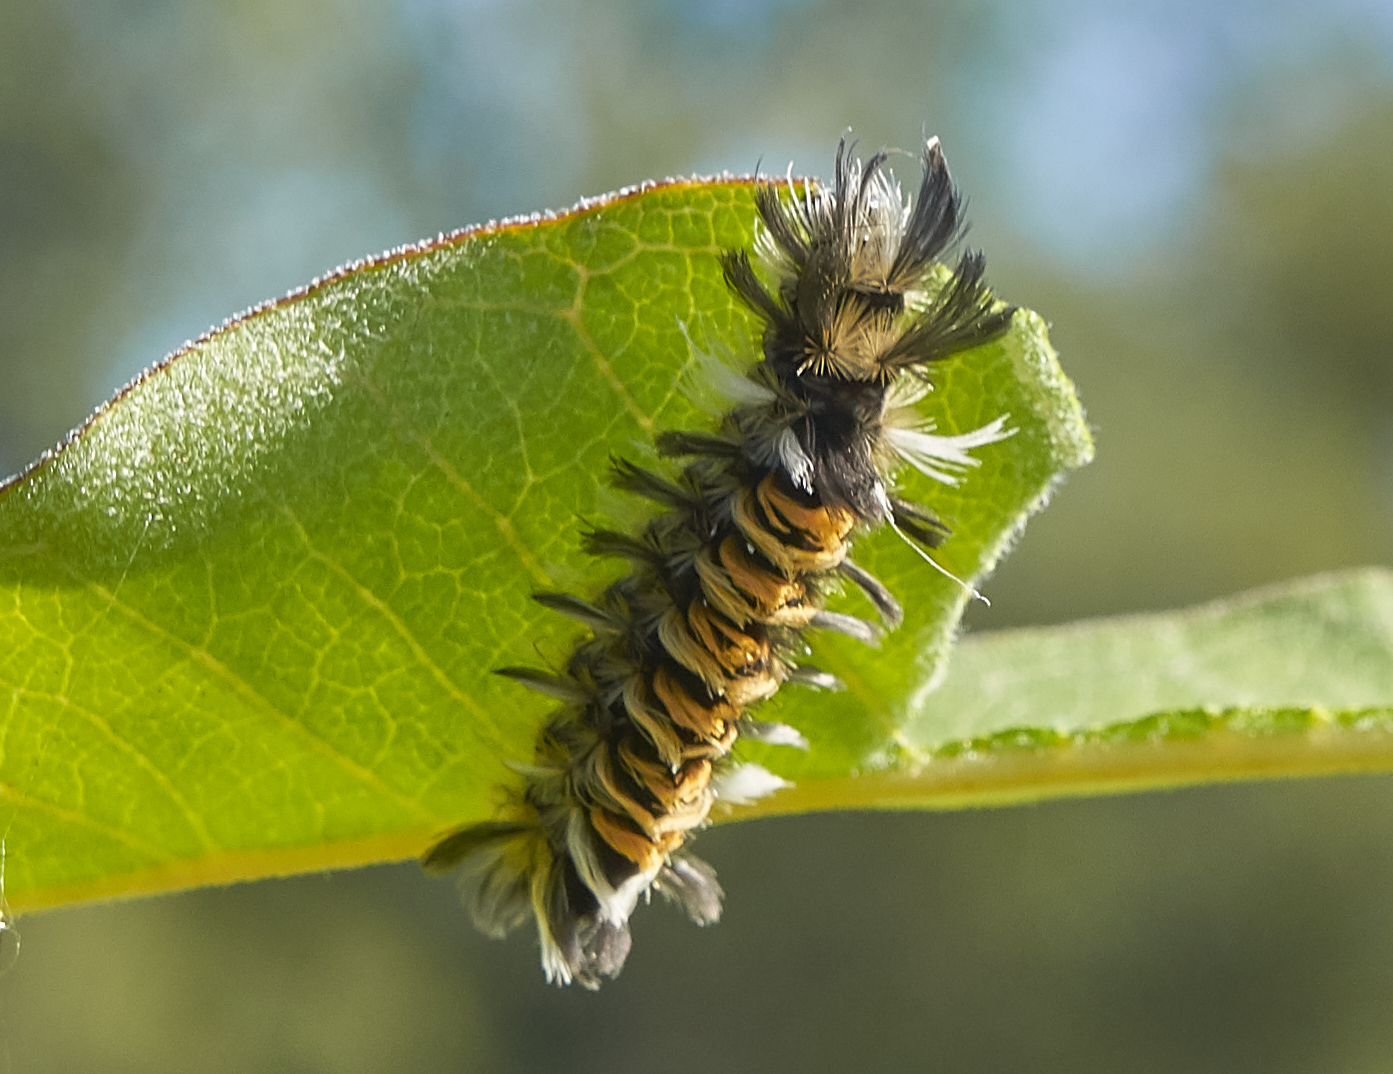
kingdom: Animalia
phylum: Arthropoda
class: Insecta
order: Lepidoptera
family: Erebidae
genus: Euchaetes
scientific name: Euchaetes egle
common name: Milkweed tussock moth
